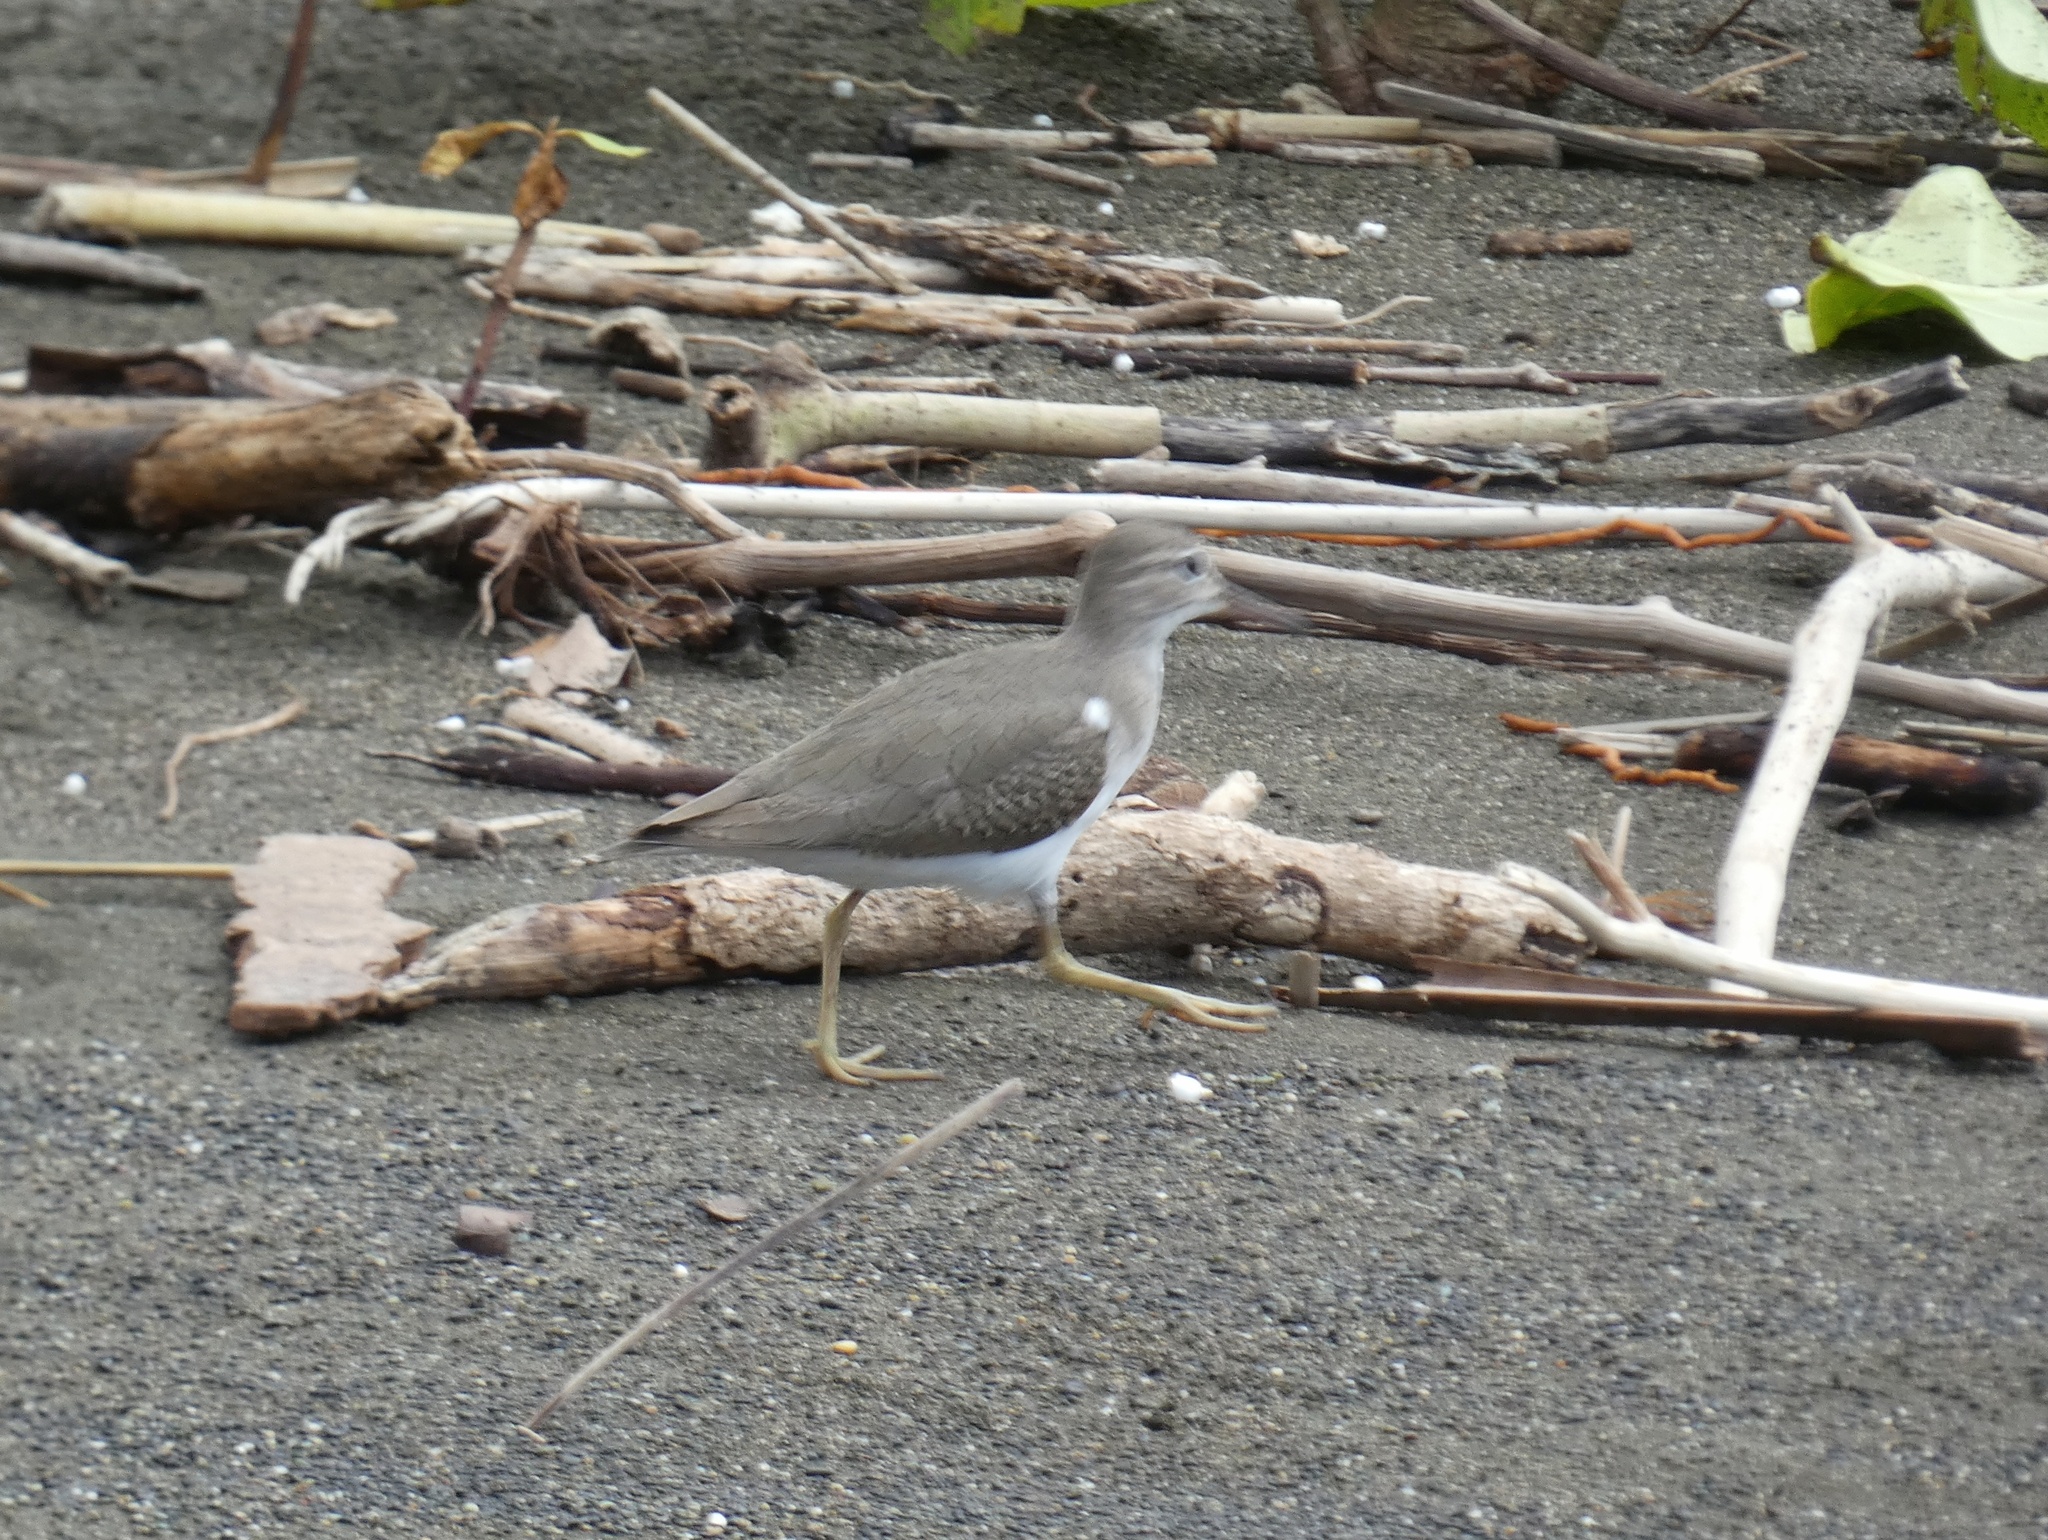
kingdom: Animalia
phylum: Chordata
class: Aves
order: Charadriiformes
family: Scolopacidae
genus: Actitis
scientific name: Actitis macularius
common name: Spotted sandpiper
